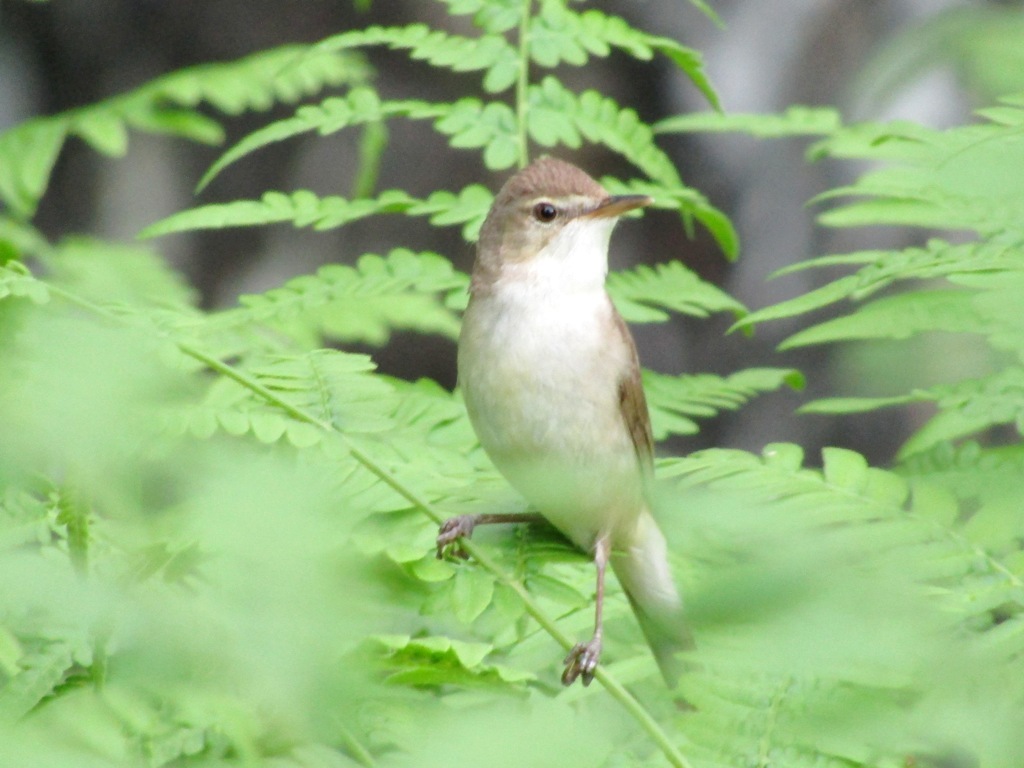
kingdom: Animalia
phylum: Chordata
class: Aves
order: Passeriformes
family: Acrocephalidae
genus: Acrocephalus
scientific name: Acrocephalus dumetorum
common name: Blyth's reed warbler
